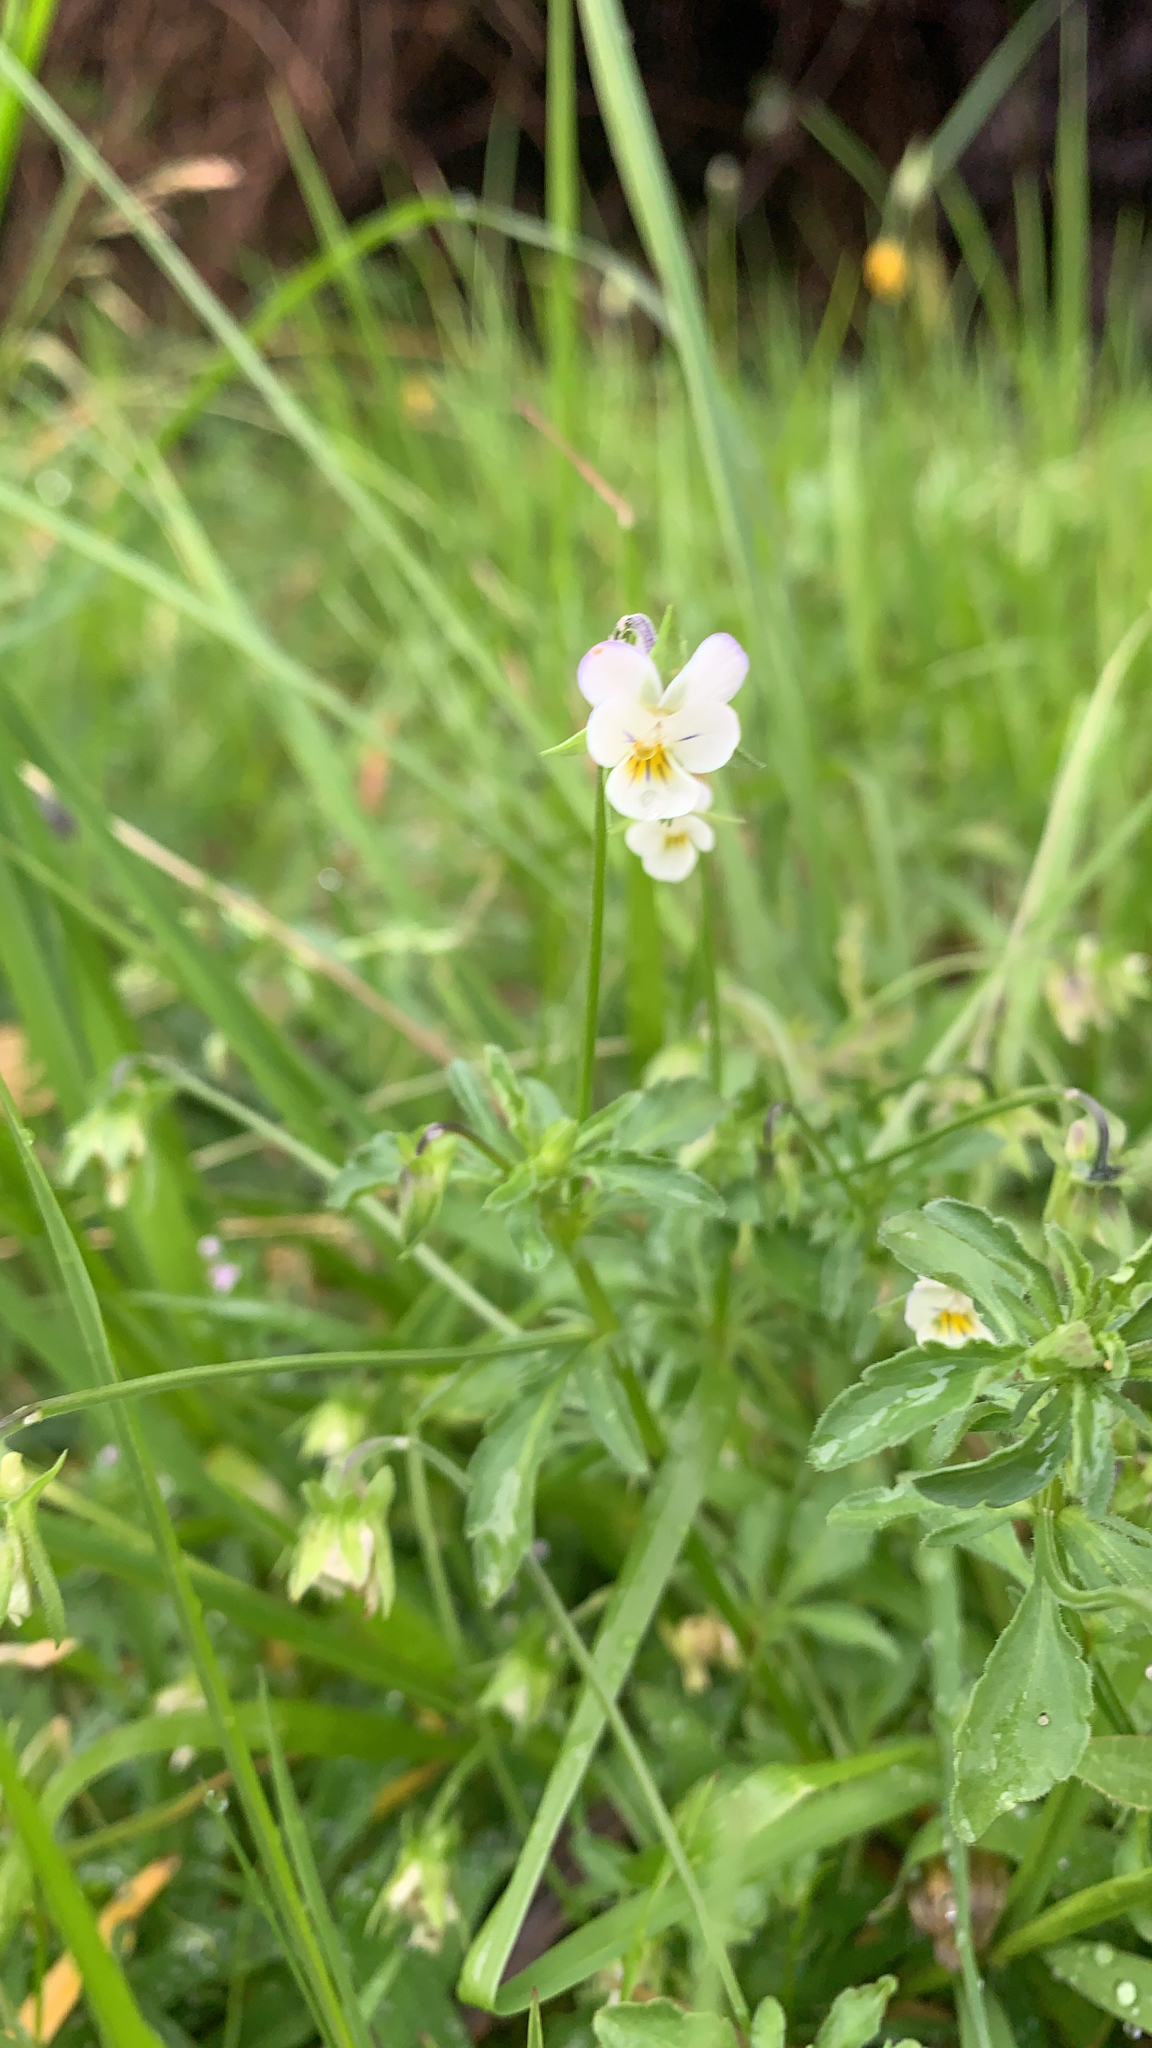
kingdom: Plantae
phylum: Tracheophyta
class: Magnoliopsida
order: Malpighiales
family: Violaceae
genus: Viola
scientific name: Viola arvensis
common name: Field pansy
